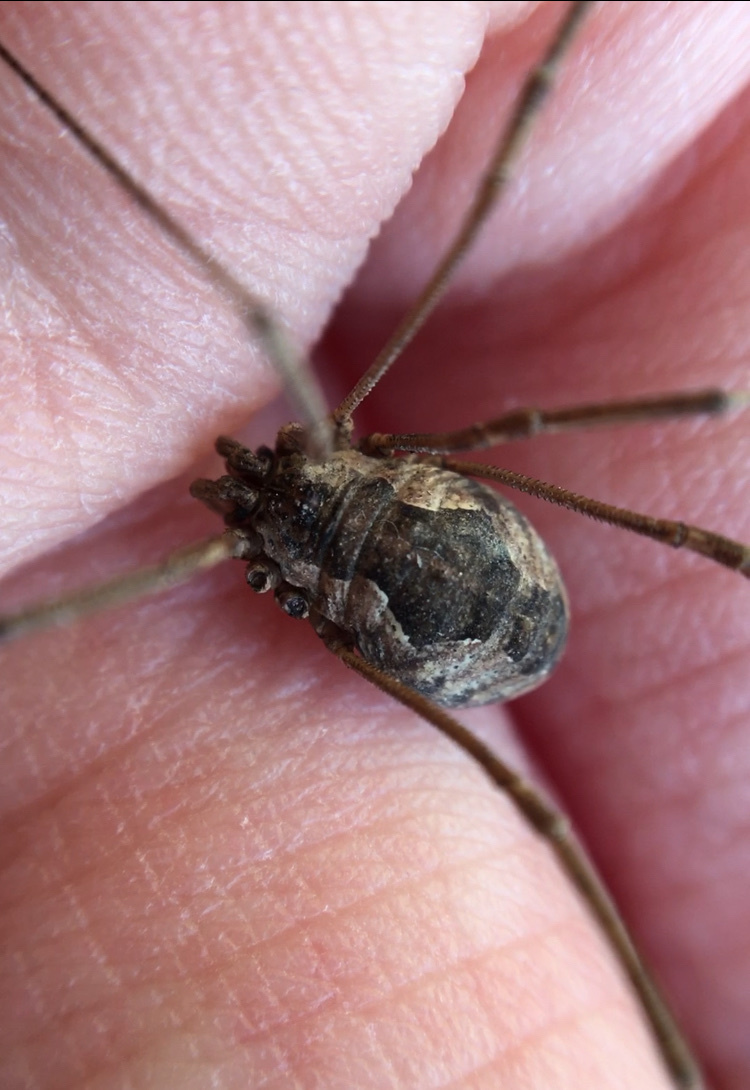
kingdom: Animalia
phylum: Arthropoda
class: Arachnida
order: Opiliones
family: Phalangiidae
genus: Phalangium
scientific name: Phalangium opilio
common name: Daddy longleg
